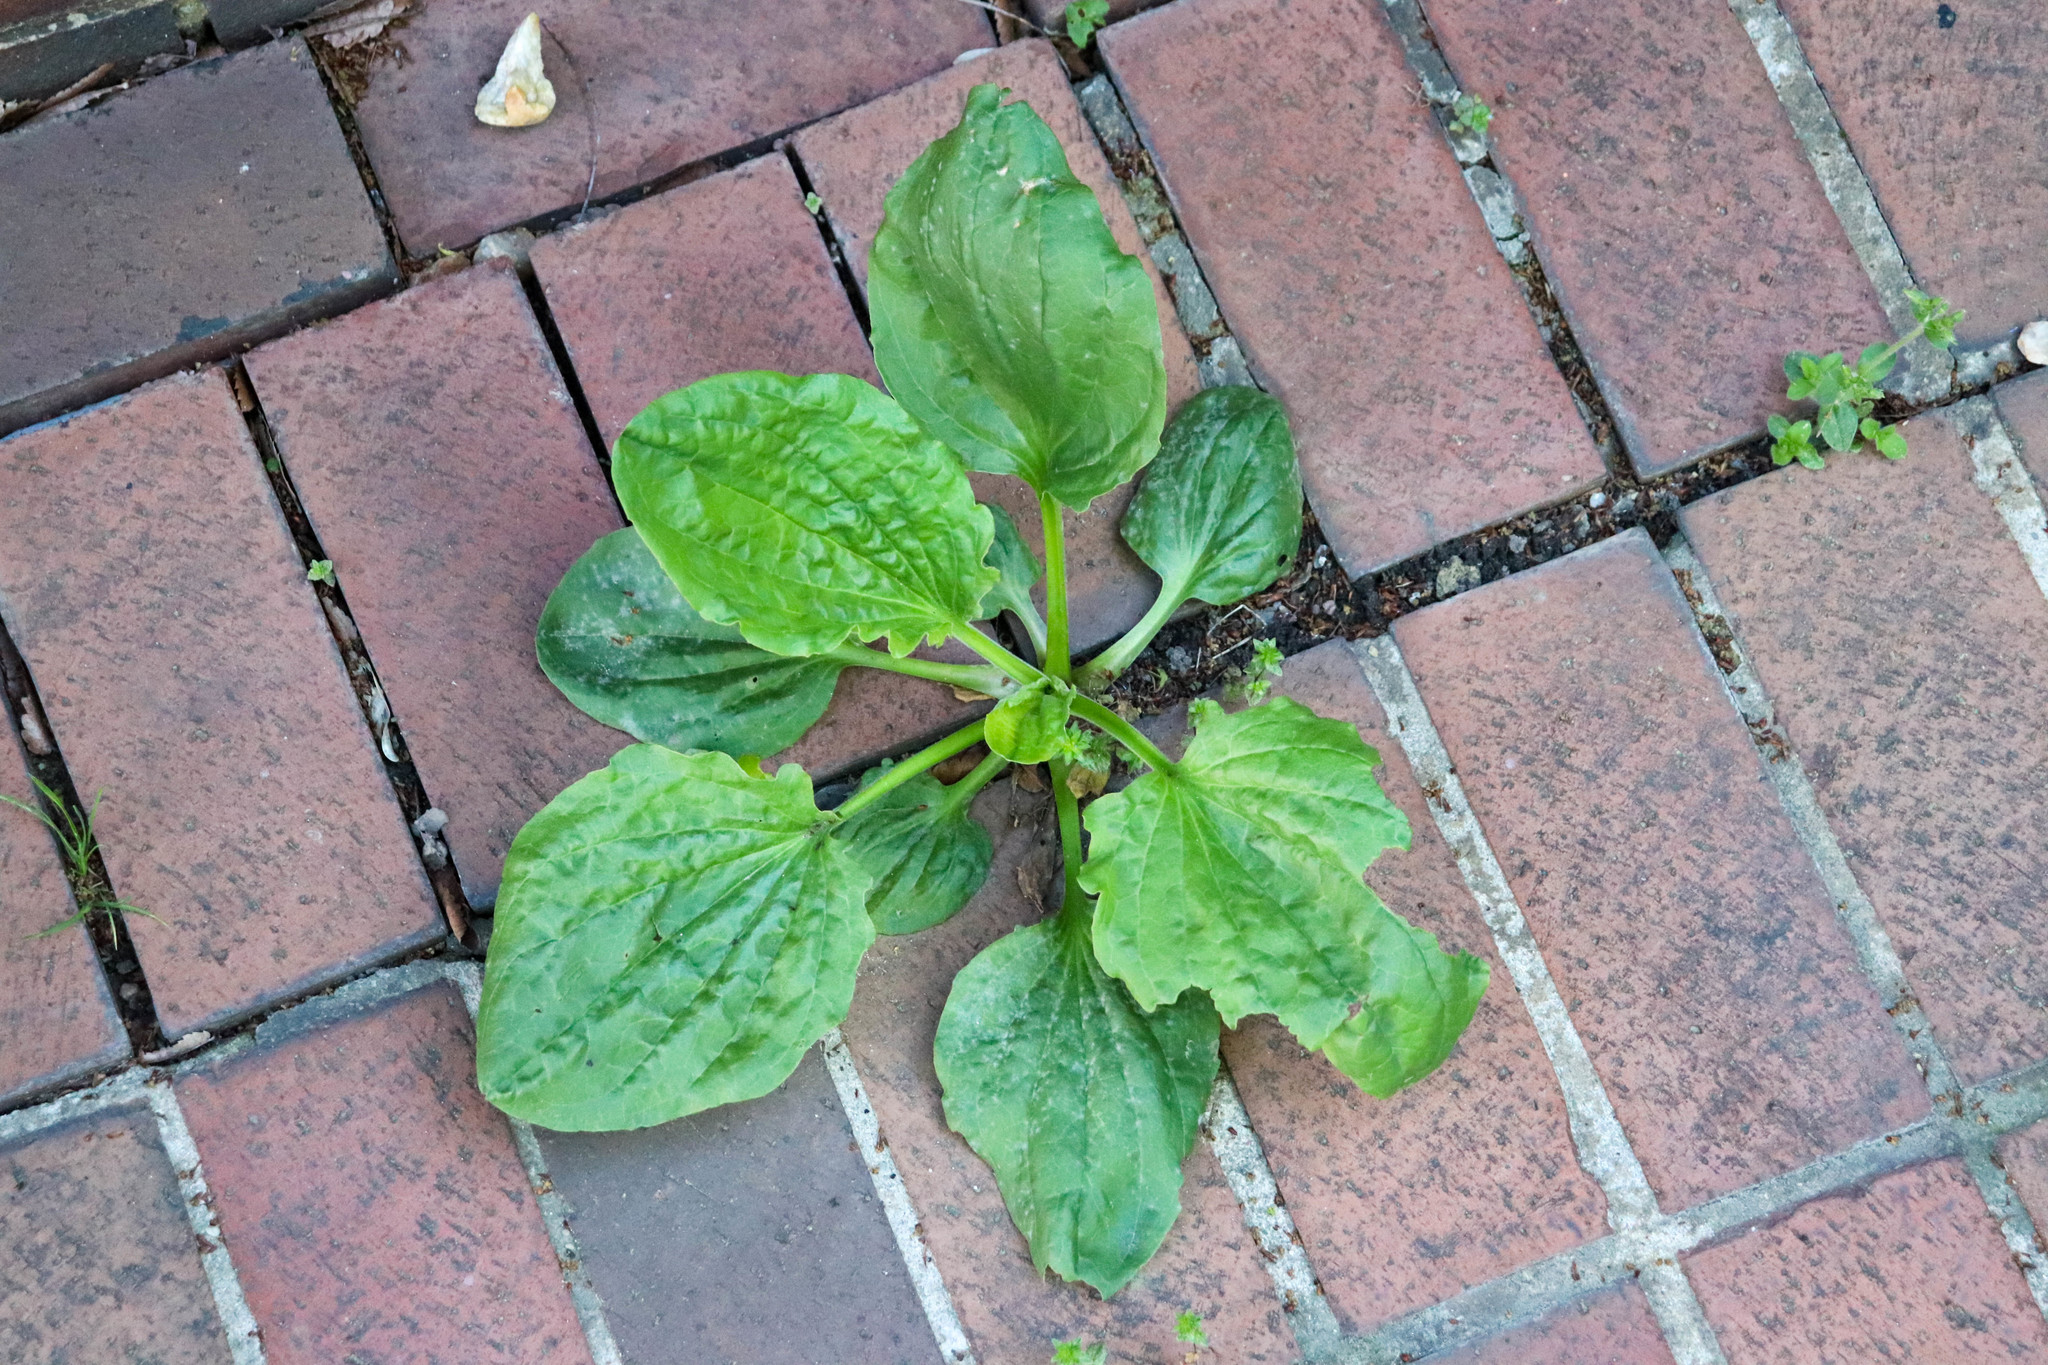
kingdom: Plantae
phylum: Tracheophyta
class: Magnoliopsida
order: Lamiales
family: Plantaginaceae
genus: Plantago
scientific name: Plantago major
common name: Common plantain
